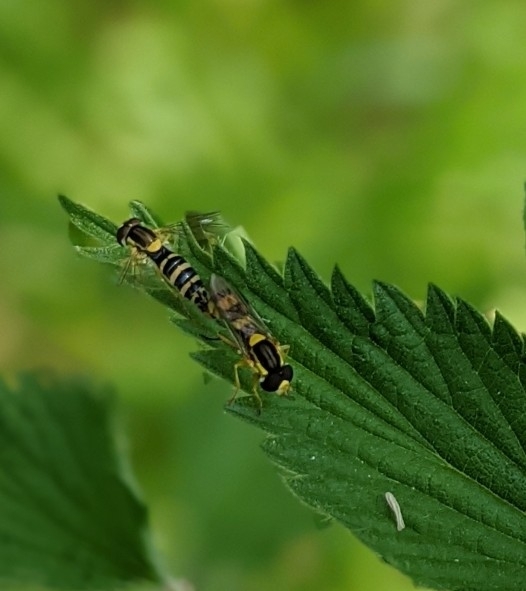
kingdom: Animalia
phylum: Arthropoda
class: Insecta
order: Diptera
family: Syrphidae
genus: Sphaerophoria
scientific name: Sphaerophoria scripta
